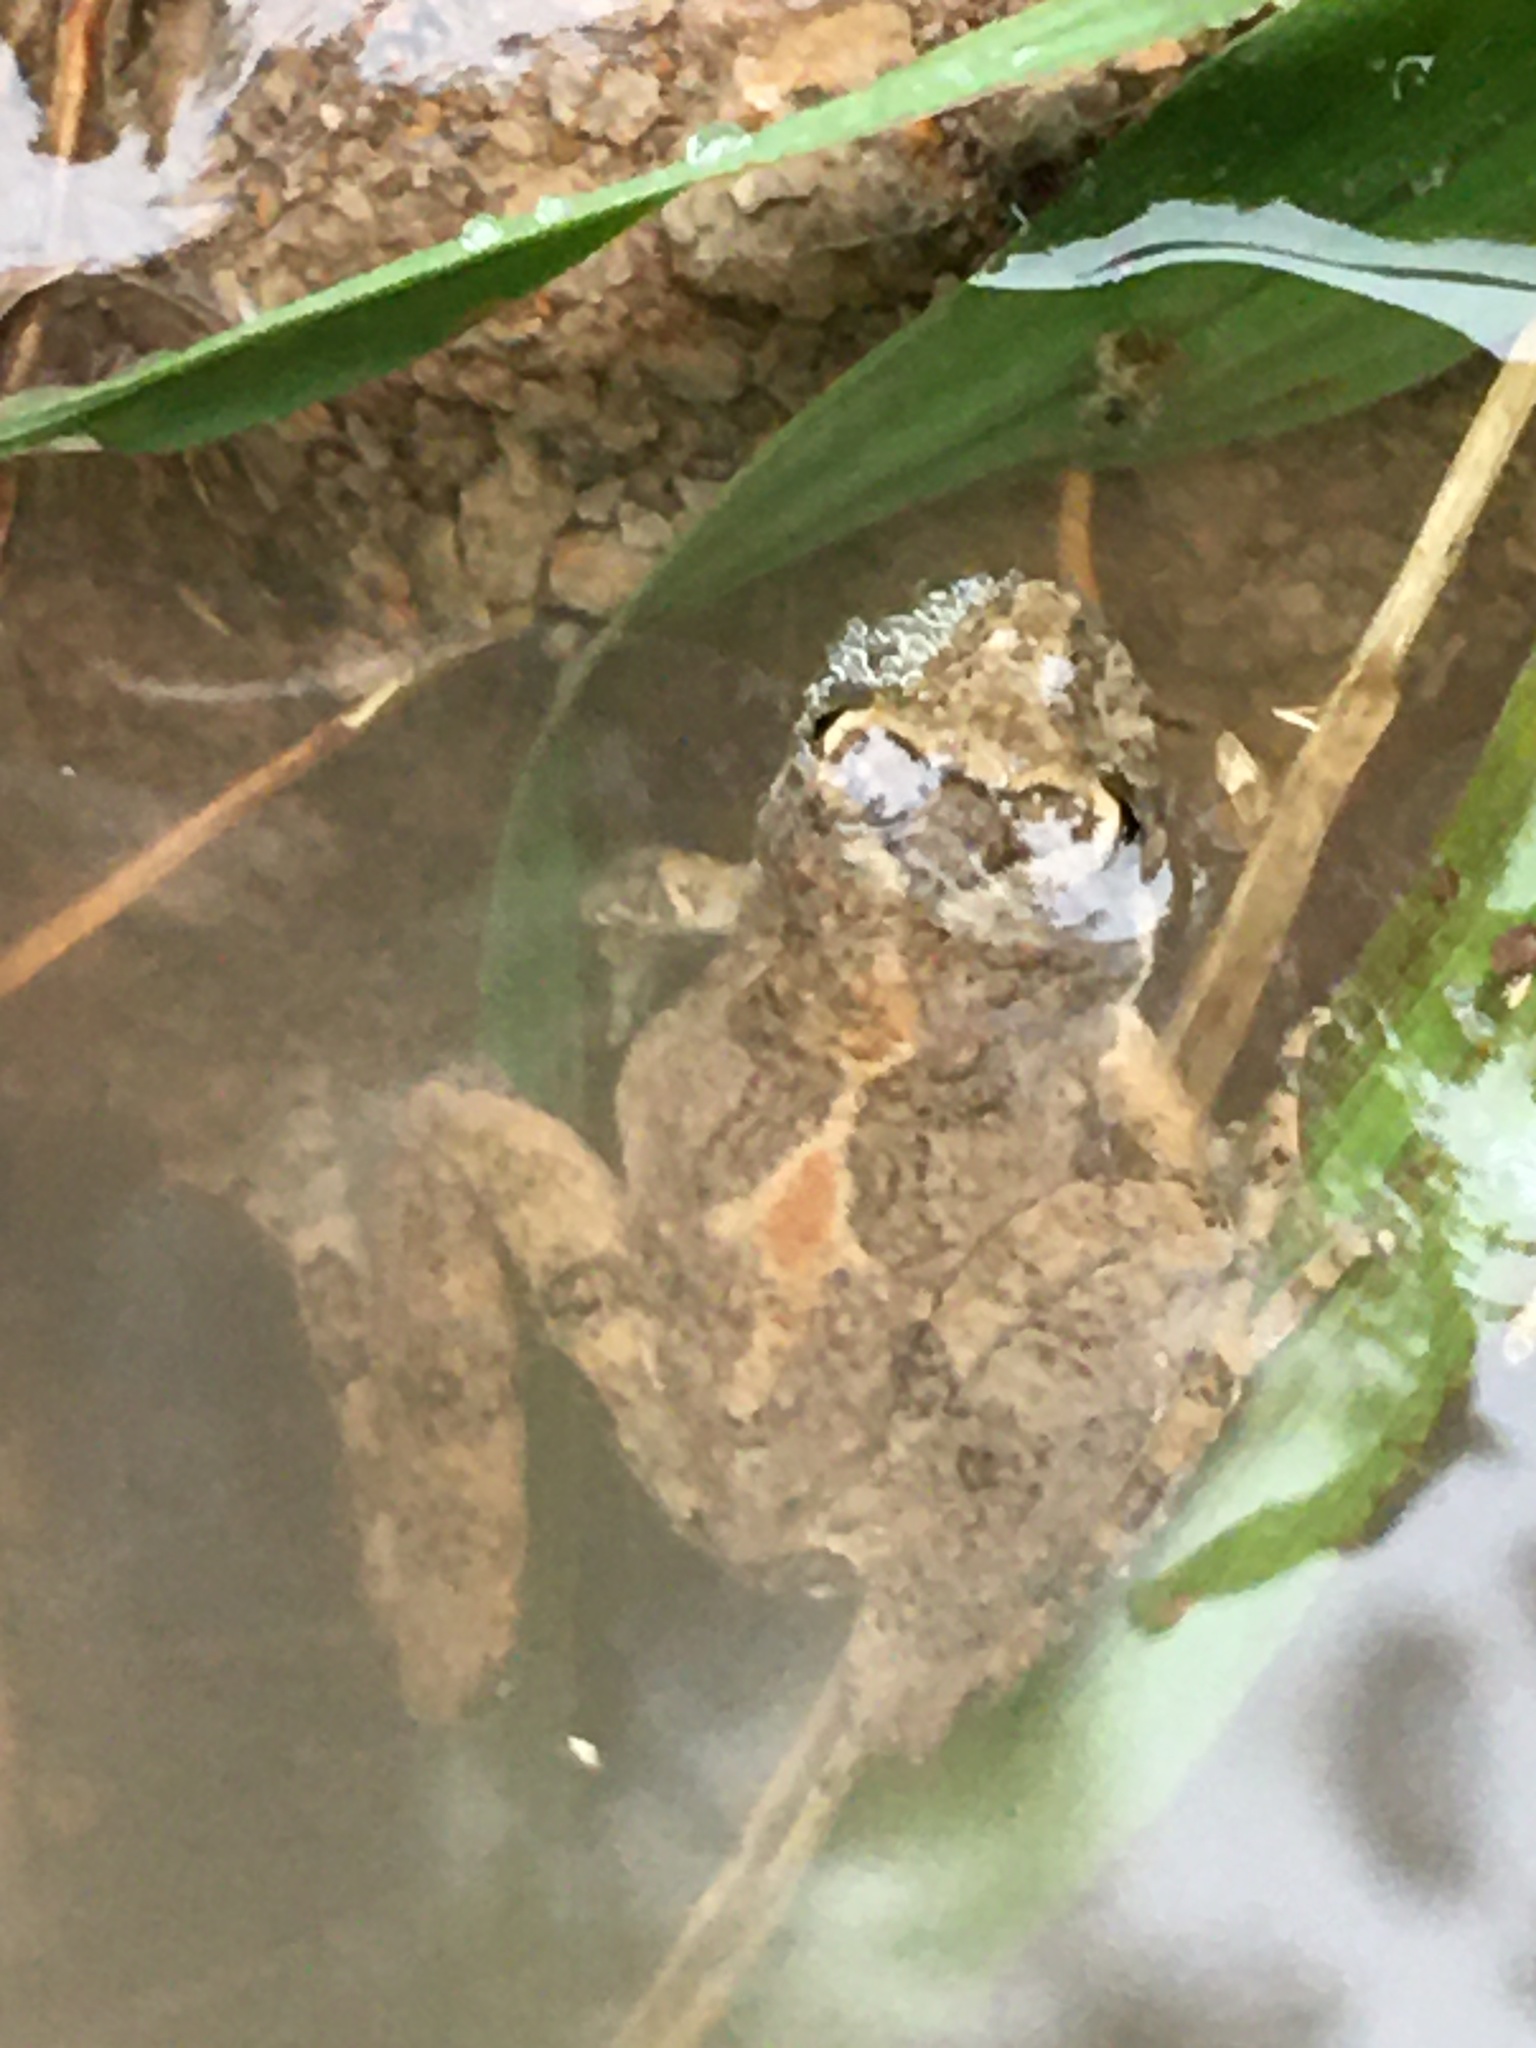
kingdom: Animalia
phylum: Chordata
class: Amphibia
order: Anura
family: Hylidae
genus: Acris
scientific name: Acris blanchardi
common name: Blanchard's cricket frog
